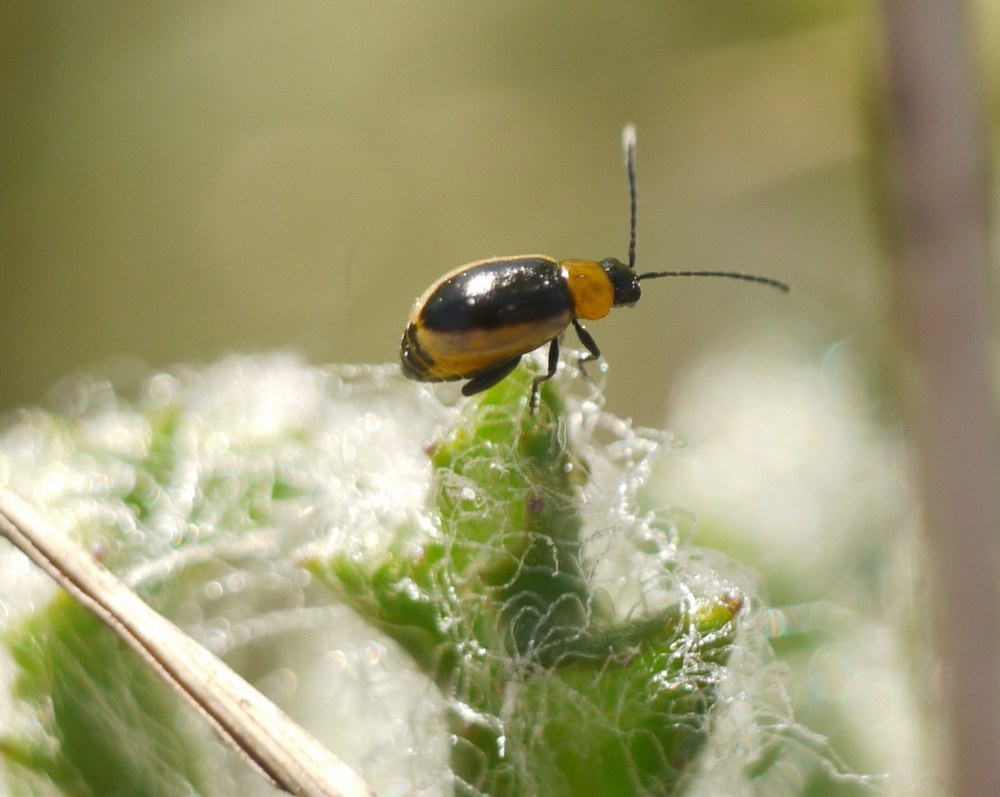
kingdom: Animalia
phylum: Arthropoda
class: Insecta
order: Coleoptera
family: Chrysomelidae
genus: Longitarsus
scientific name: Longitarsus dorsalis
